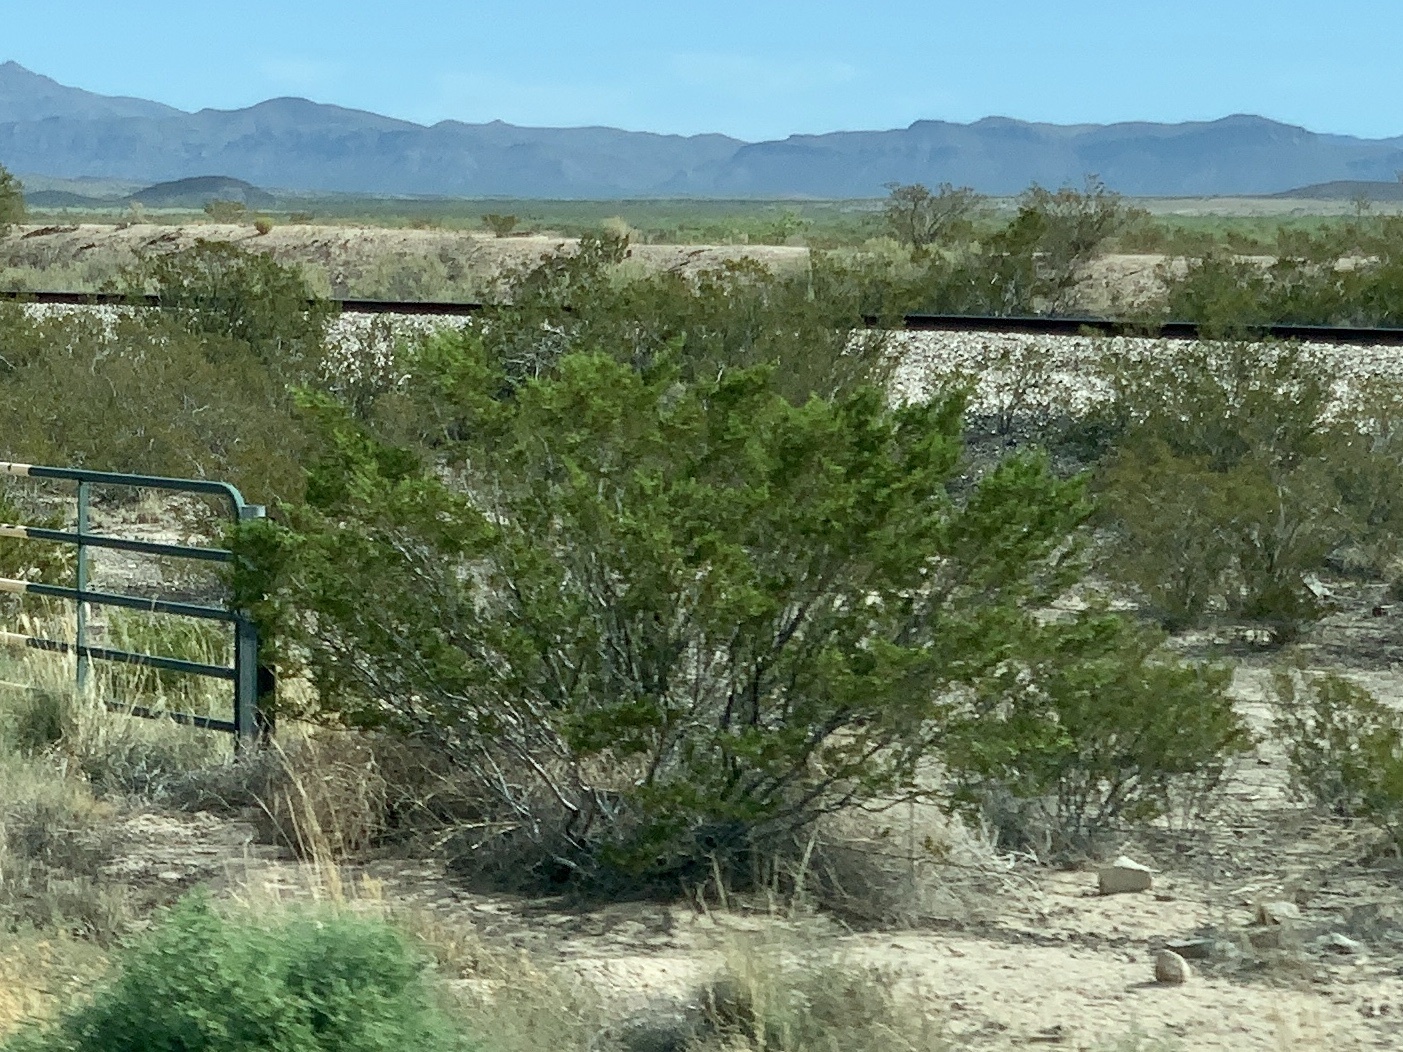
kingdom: Plantae
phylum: Tracheophyta
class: Magnoliopsida
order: Zygophyllales
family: Zygophyllaceae
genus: Larrea
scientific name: Larrea tridentata
